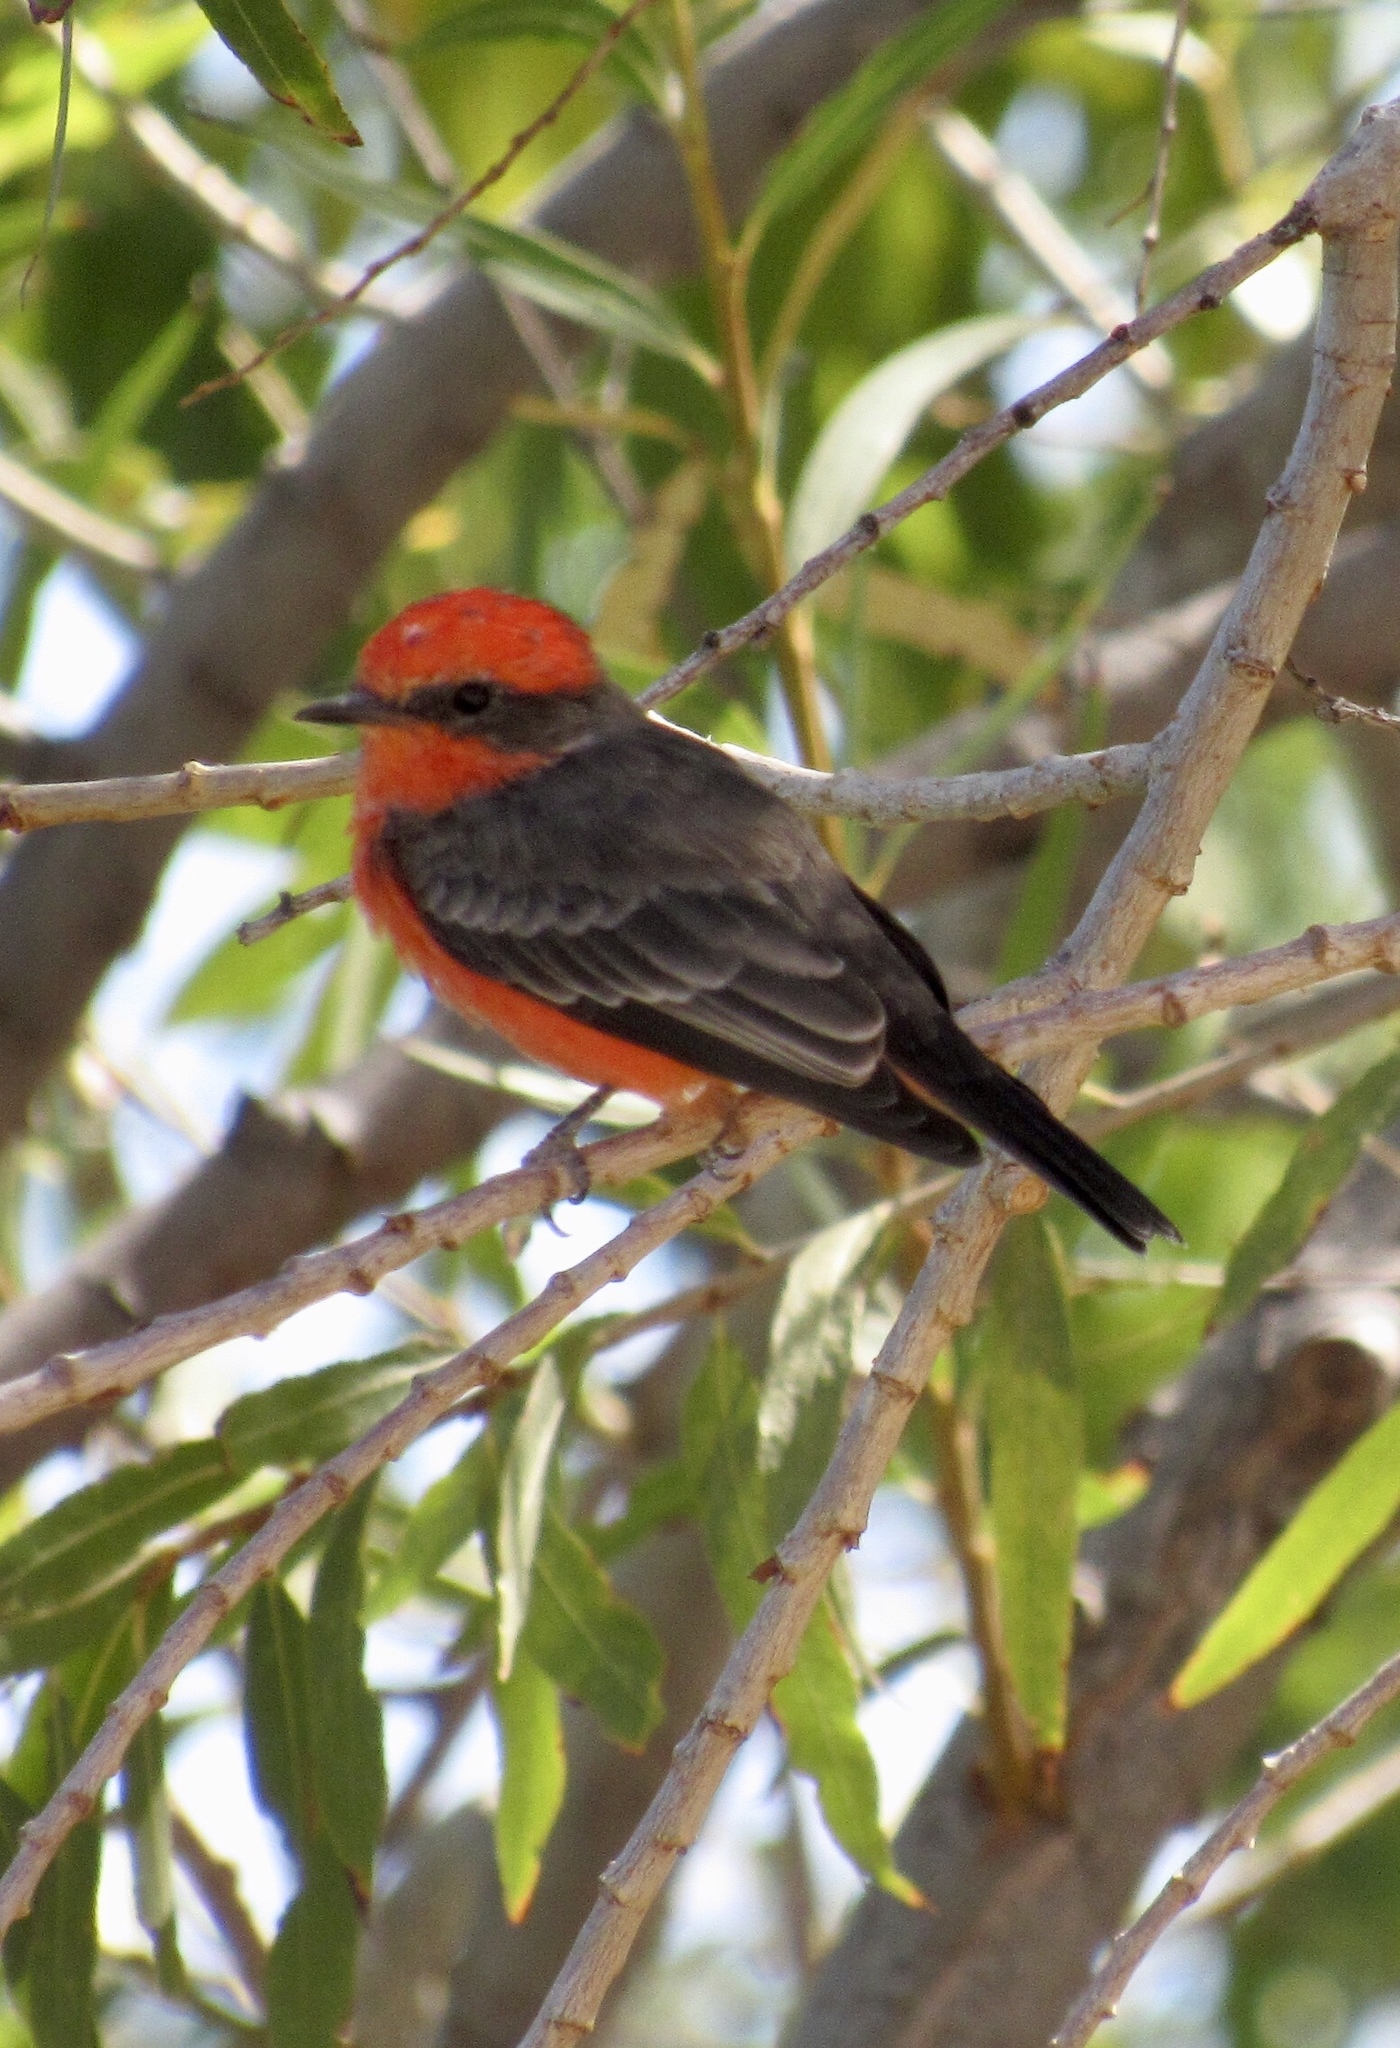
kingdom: Animalia
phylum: Chordata
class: Aves
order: Passeriformes
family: Tyrannidae
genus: Pyrocephalus
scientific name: Pyrocephalus rubinus
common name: Vermilion flycatcher
